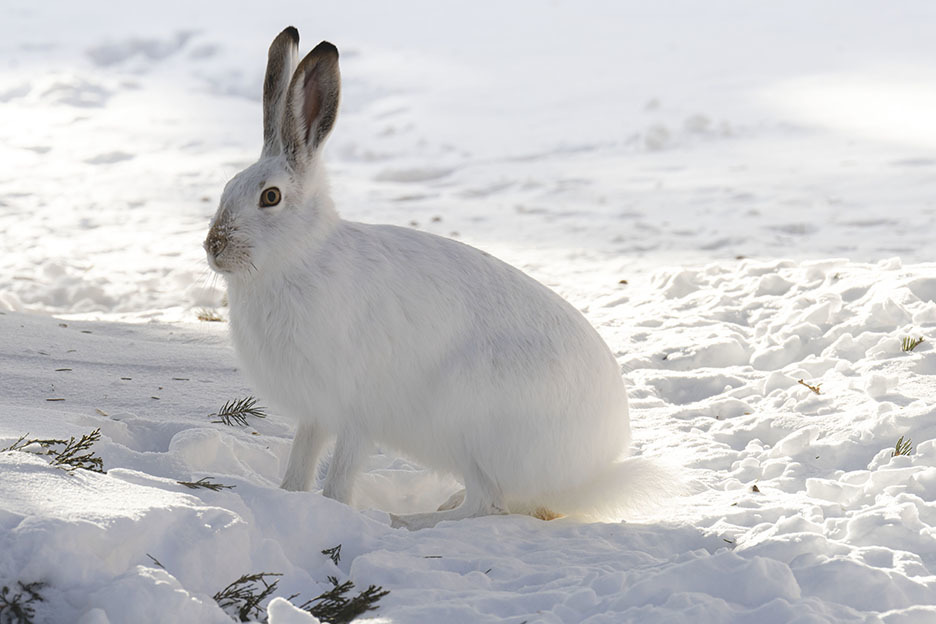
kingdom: Animalia
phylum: Chordata
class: Mammalia
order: Lagomorpha
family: Leporidae
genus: Lepus
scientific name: Lepus townsendii
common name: White-tailed jackrabbit
